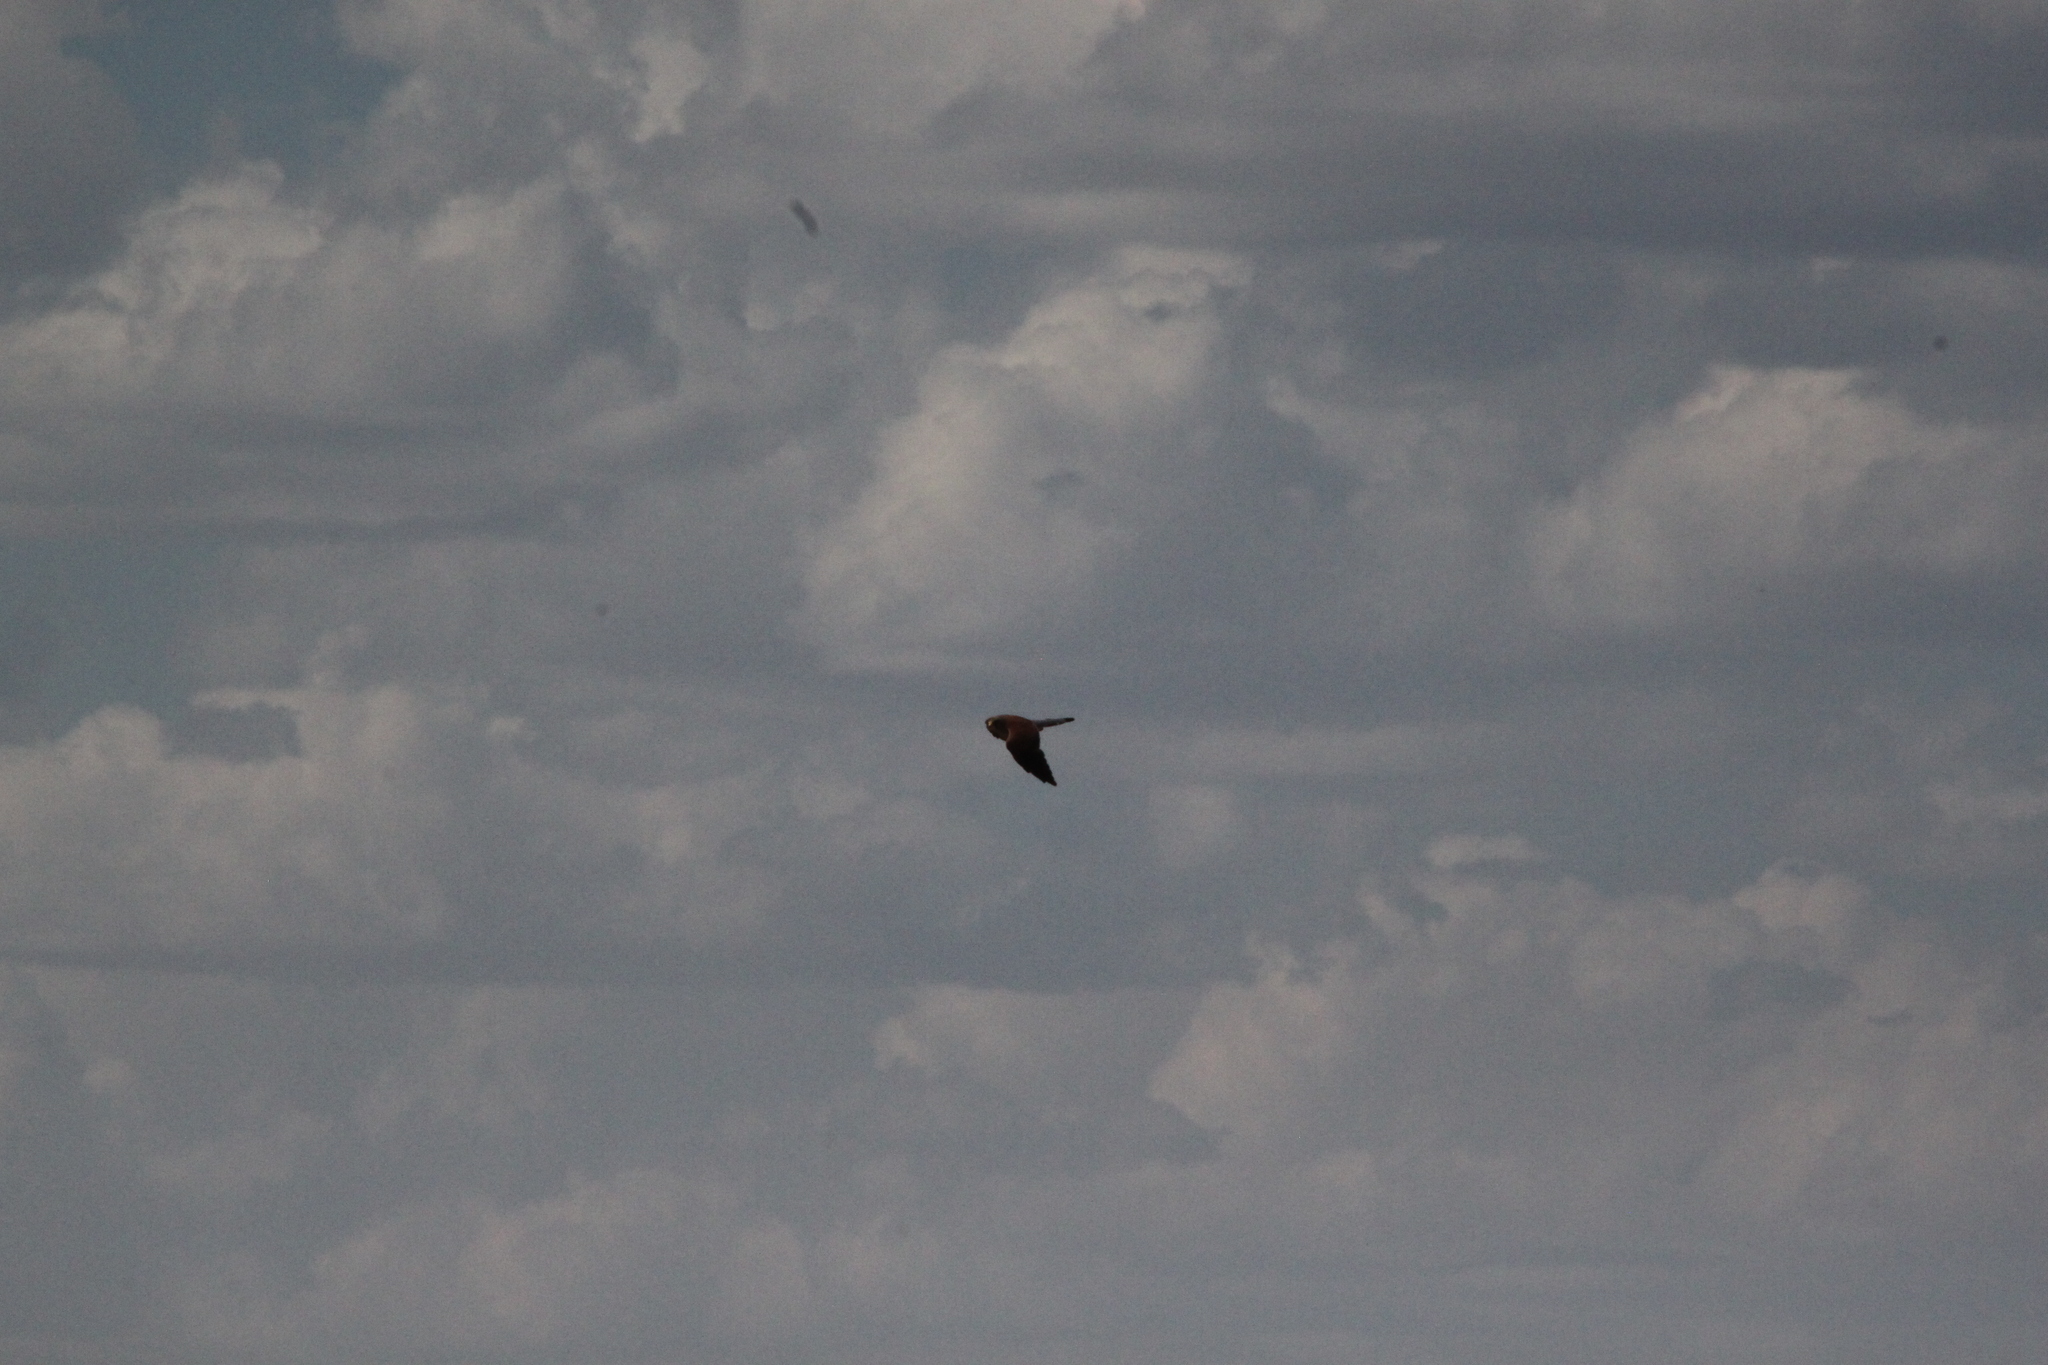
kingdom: Animalia
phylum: Chordata
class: Aves
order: Falconiformes
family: Falconidae
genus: Falco
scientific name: Falco naumanni
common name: Lesser kestrel
